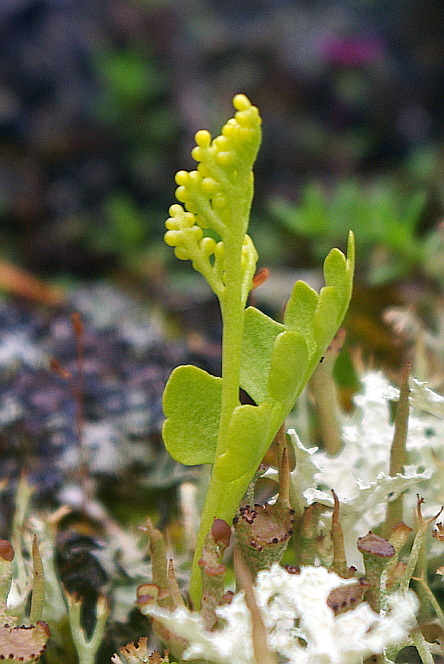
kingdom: Plantae
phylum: Tracheophyta
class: Polypodiopsida
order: Ophioglossales
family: Ophioglossaceae
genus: Botrychium
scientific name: Botrychium boreale
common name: Boreal moonwort
